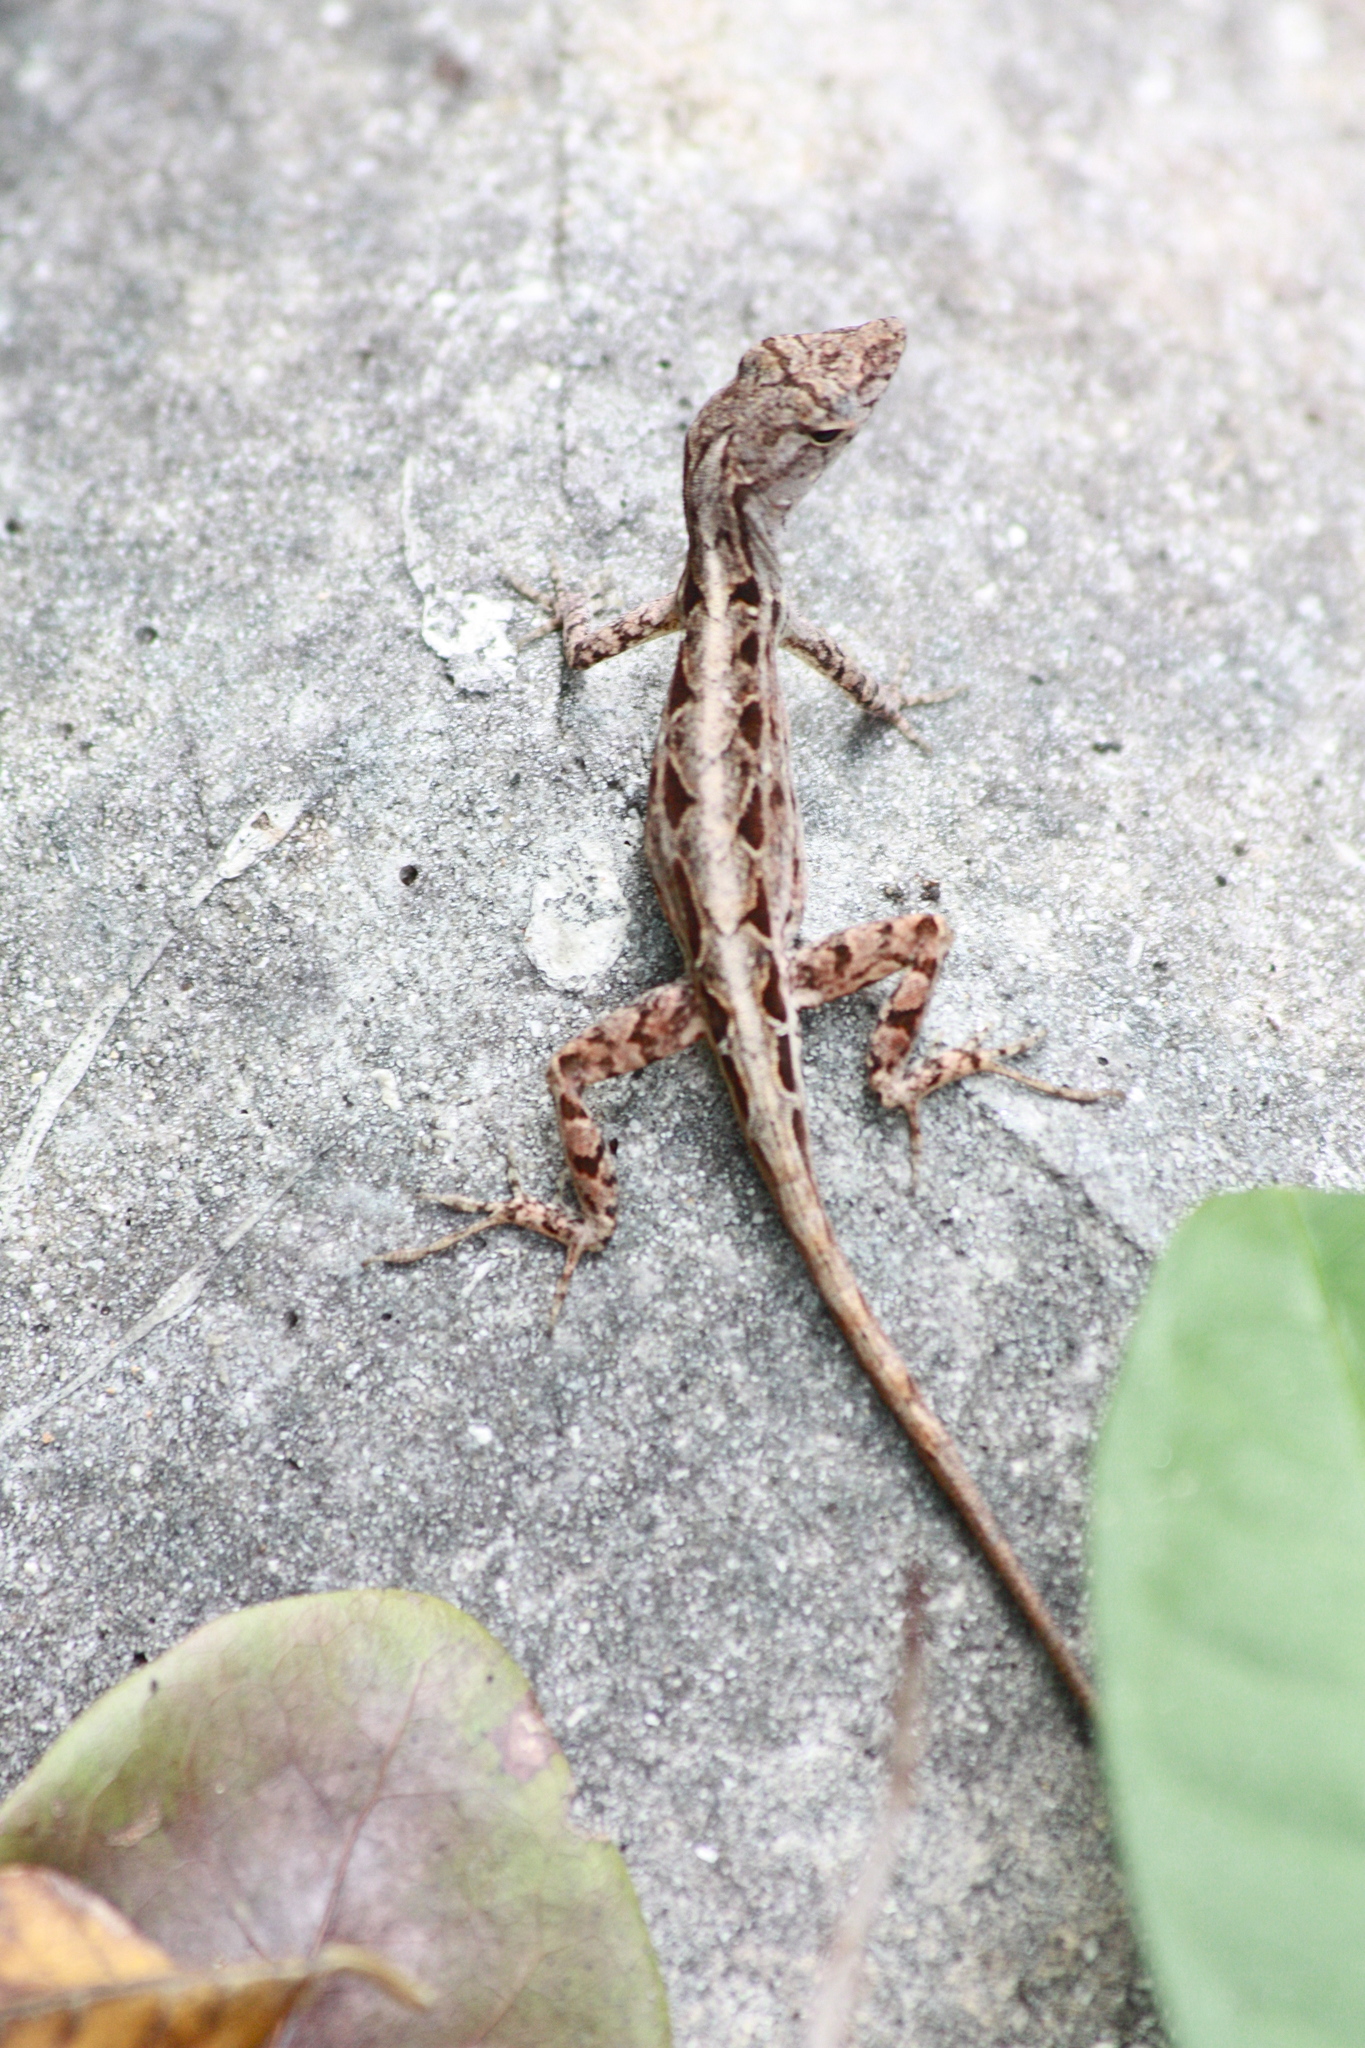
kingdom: Animalia
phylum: Chordata
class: Squamata
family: Dactyloidae
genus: Anolis
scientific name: Anolis sagrei
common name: Brown anole
